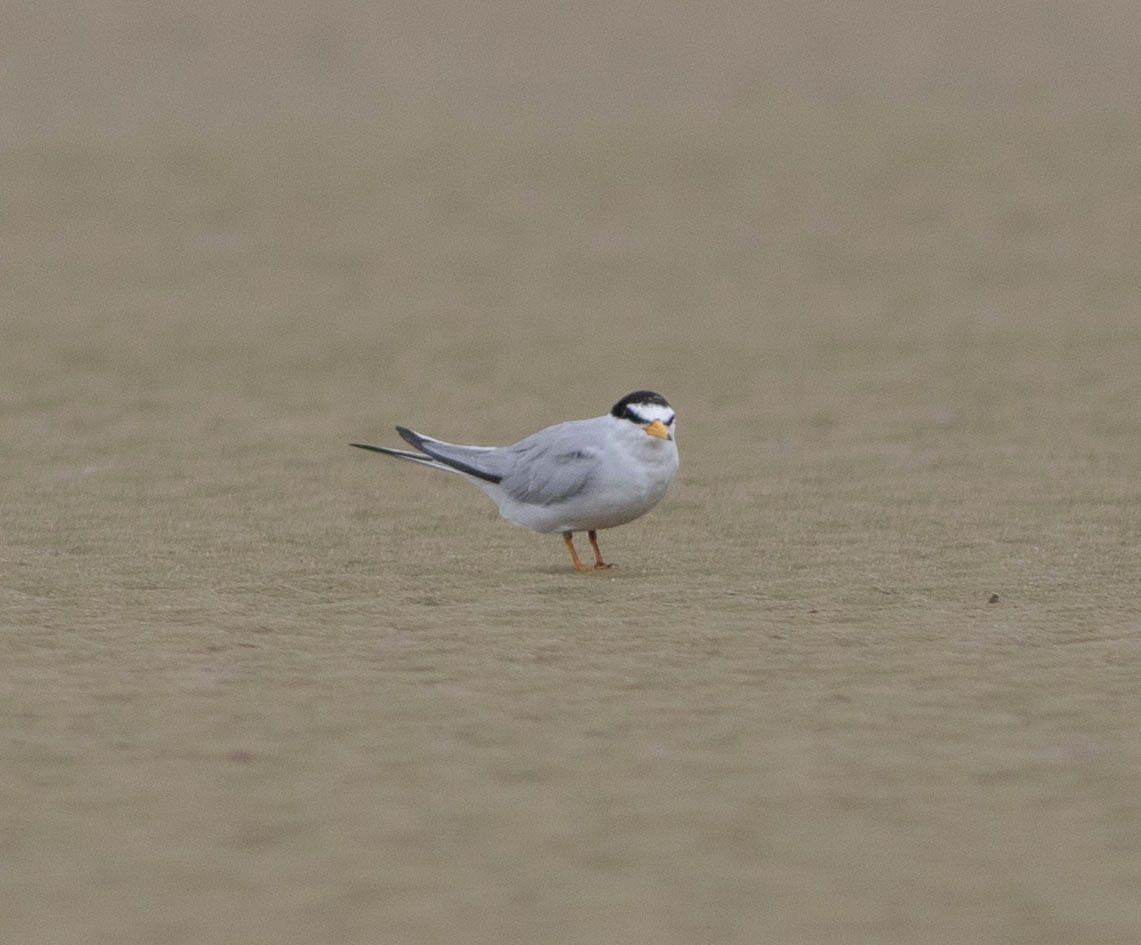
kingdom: Animalia
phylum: Chordata
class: Aves
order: Charadriiformes
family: Laridae
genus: Sternula
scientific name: Sternula antillarum
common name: Least tern
